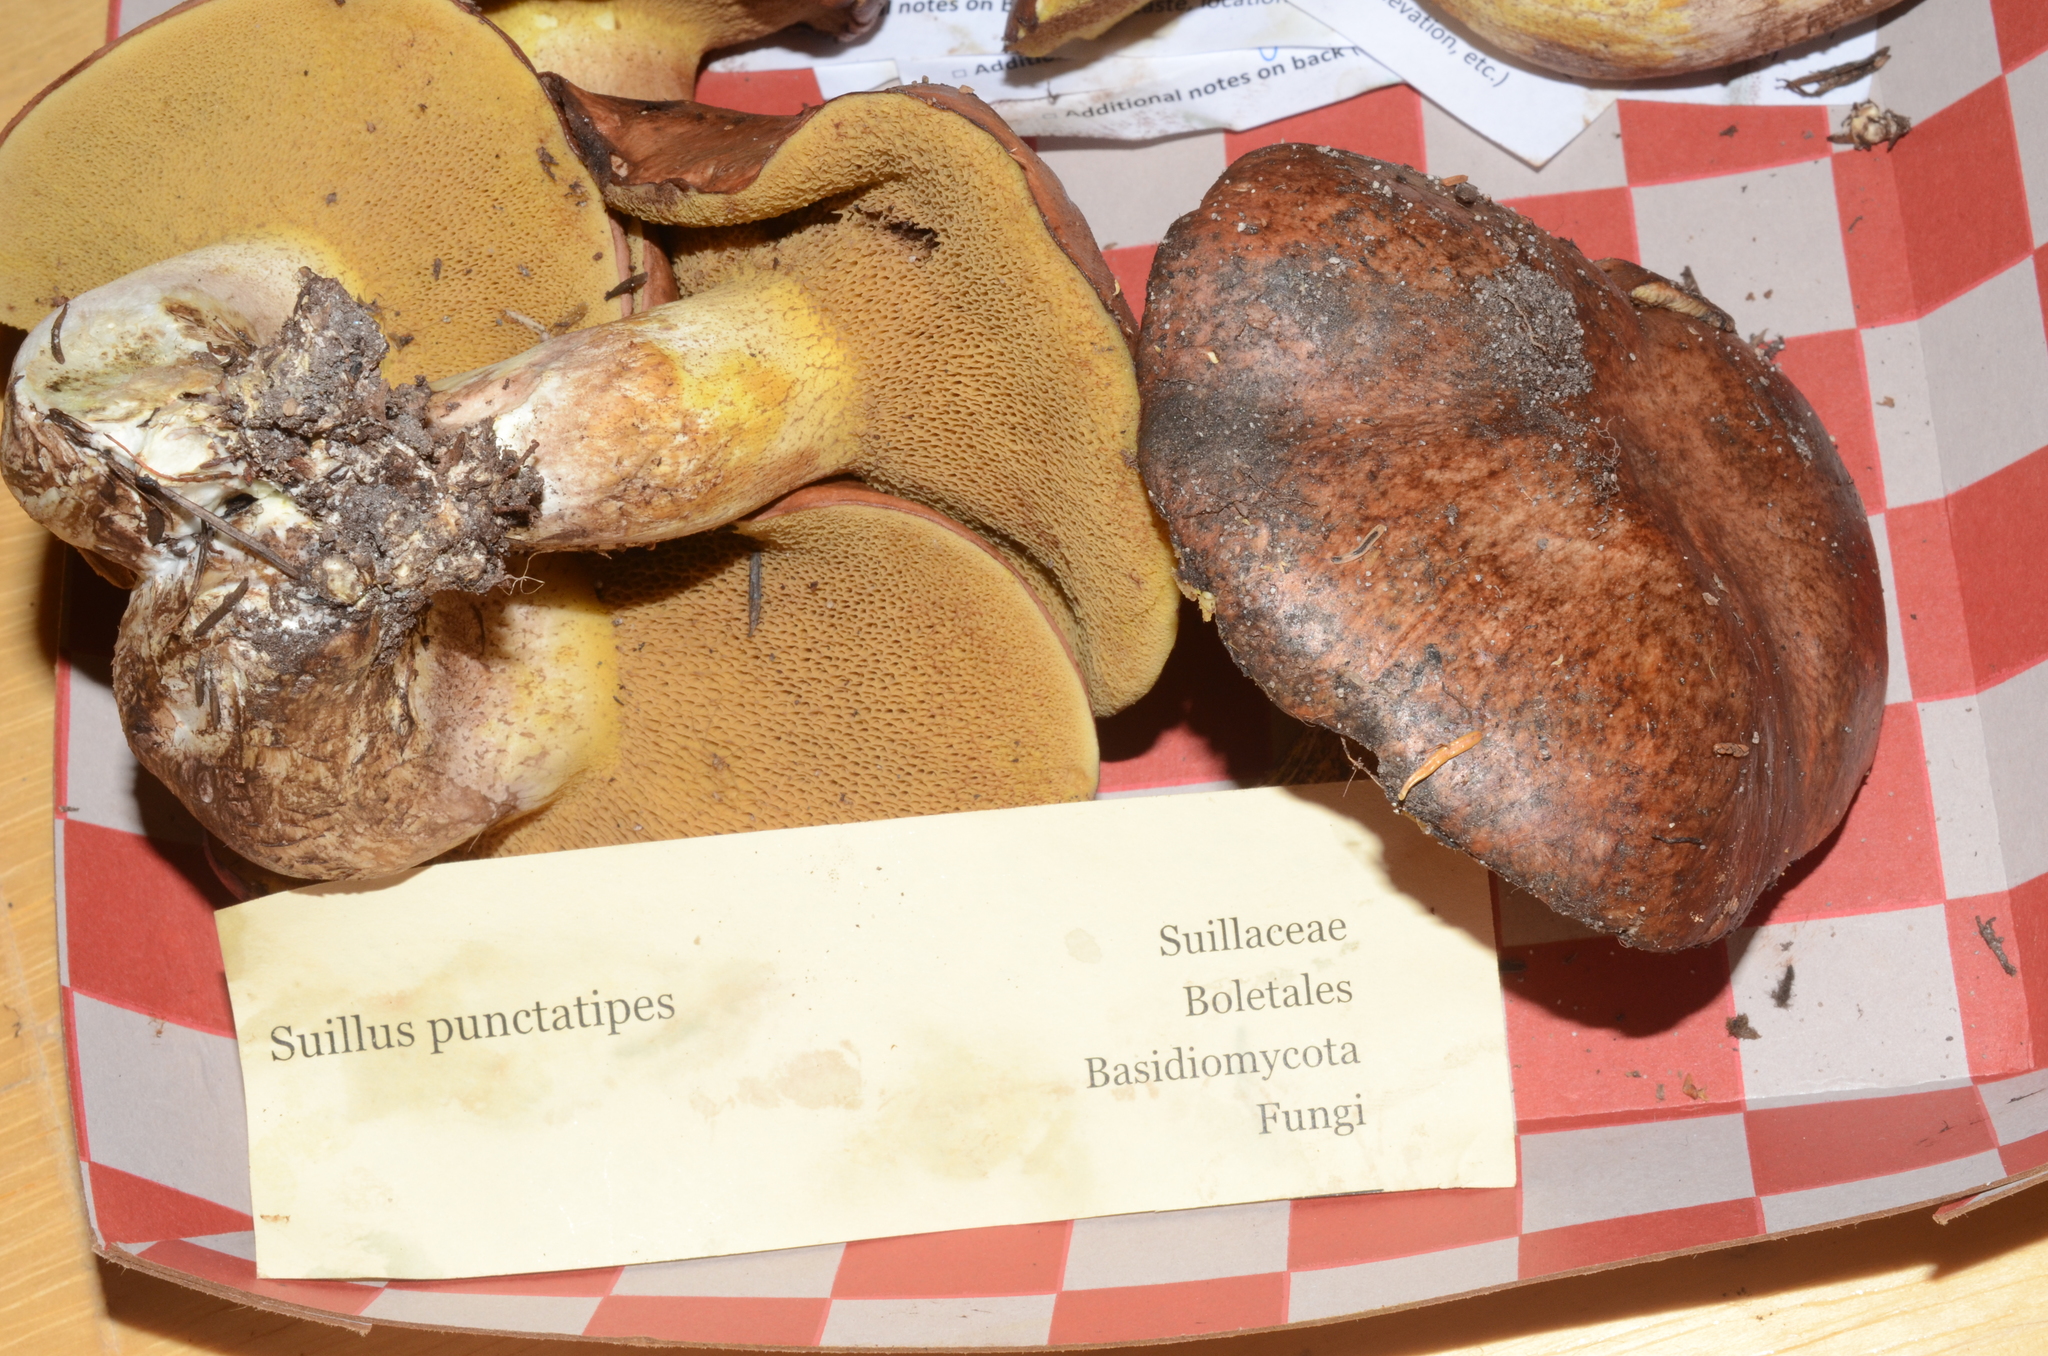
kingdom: Fungi
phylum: Basidiomycota
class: Agaricomycetes
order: Boletales
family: Suillaceae
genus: Suillus
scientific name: Suillus punctatipes
